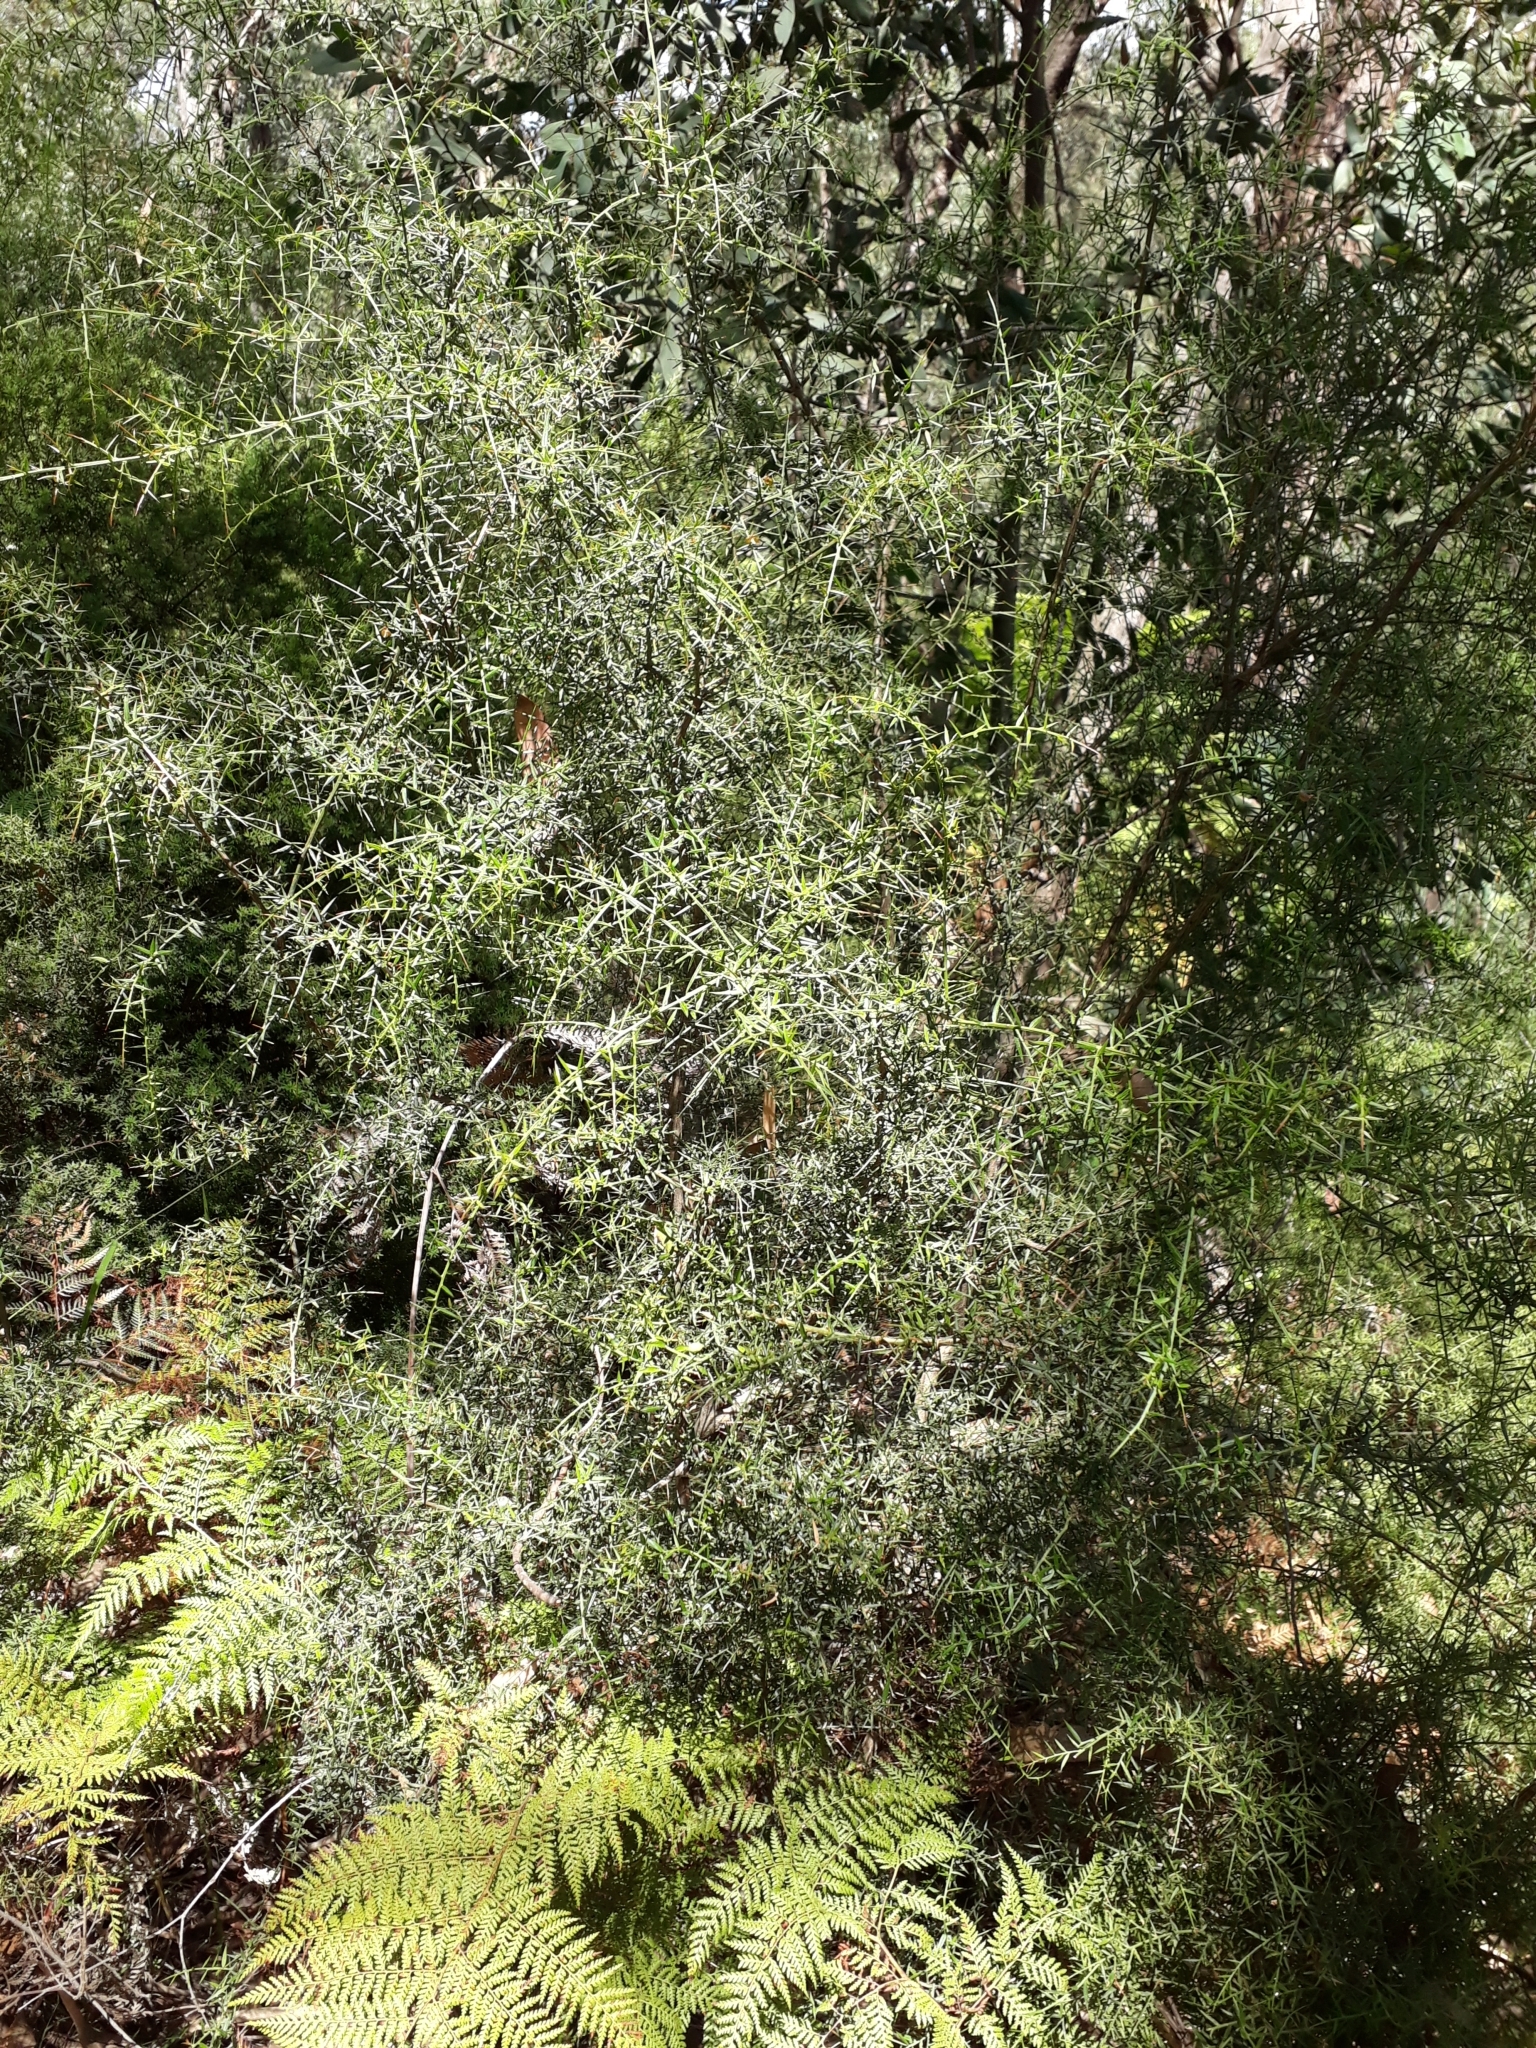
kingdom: Plantae
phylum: Tracheophyta
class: Magnoliopsida
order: Fabales
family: Fabaceae
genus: Daviesia
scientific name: Daviesia ulicifolia
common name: Gorse bitter-pea
